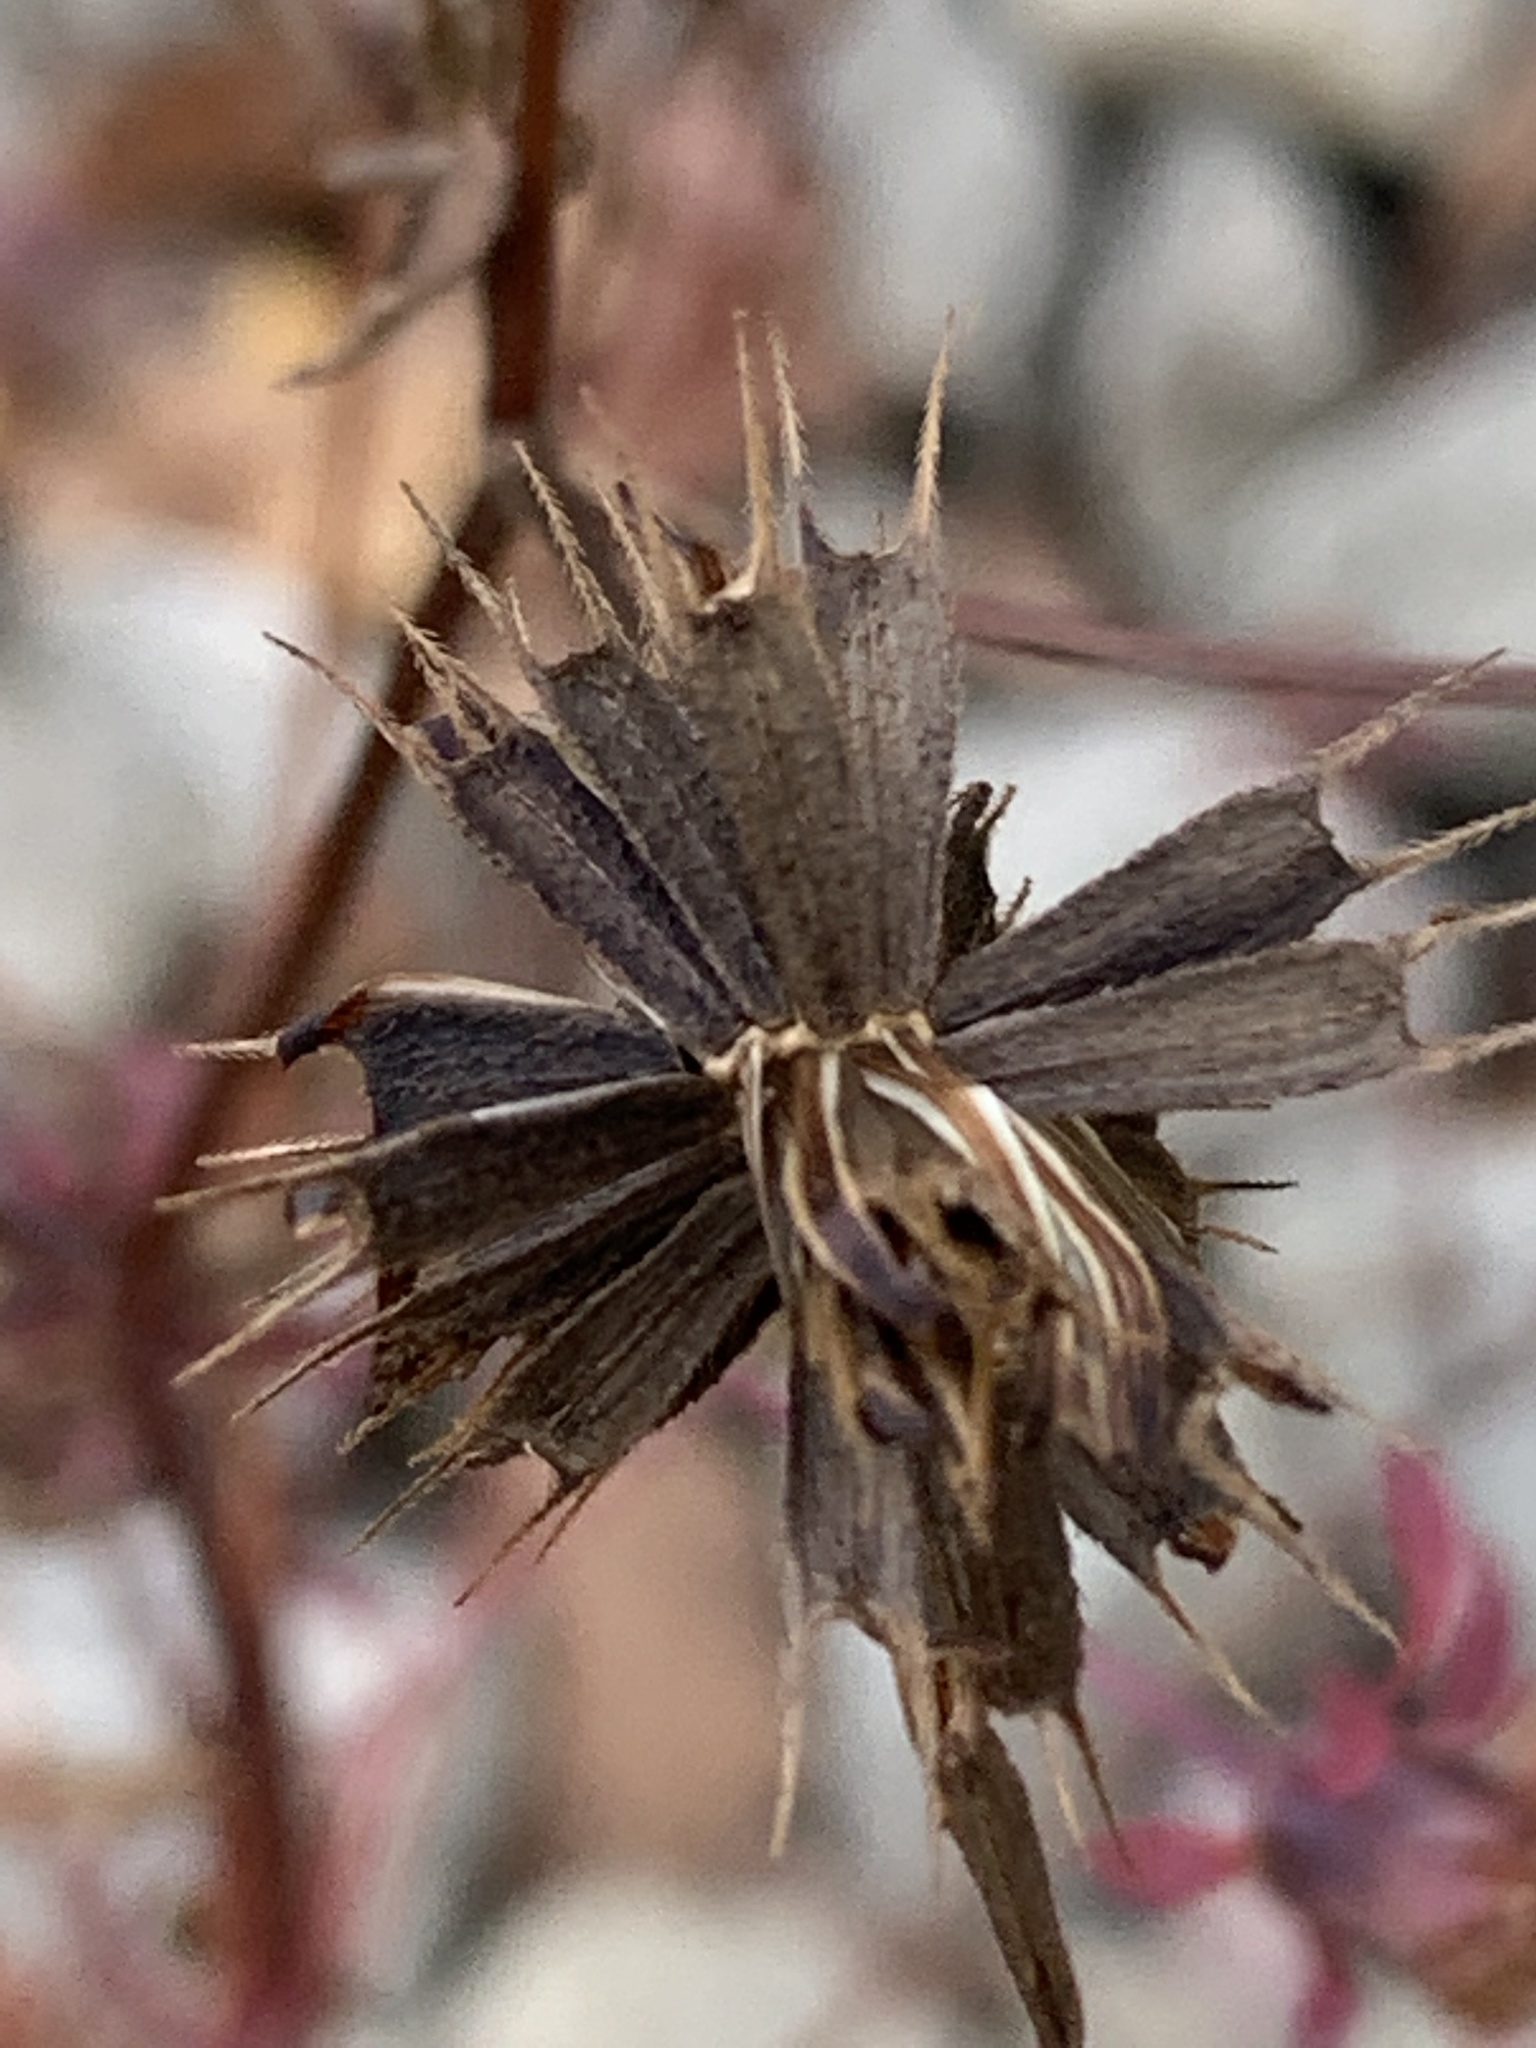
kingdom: Plantae
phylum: Tracheophyta
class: Magnoliopsida
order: Asterales
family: Asteraceae
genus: Bidens
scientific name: Bidens frondosa
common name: Beggarticks
